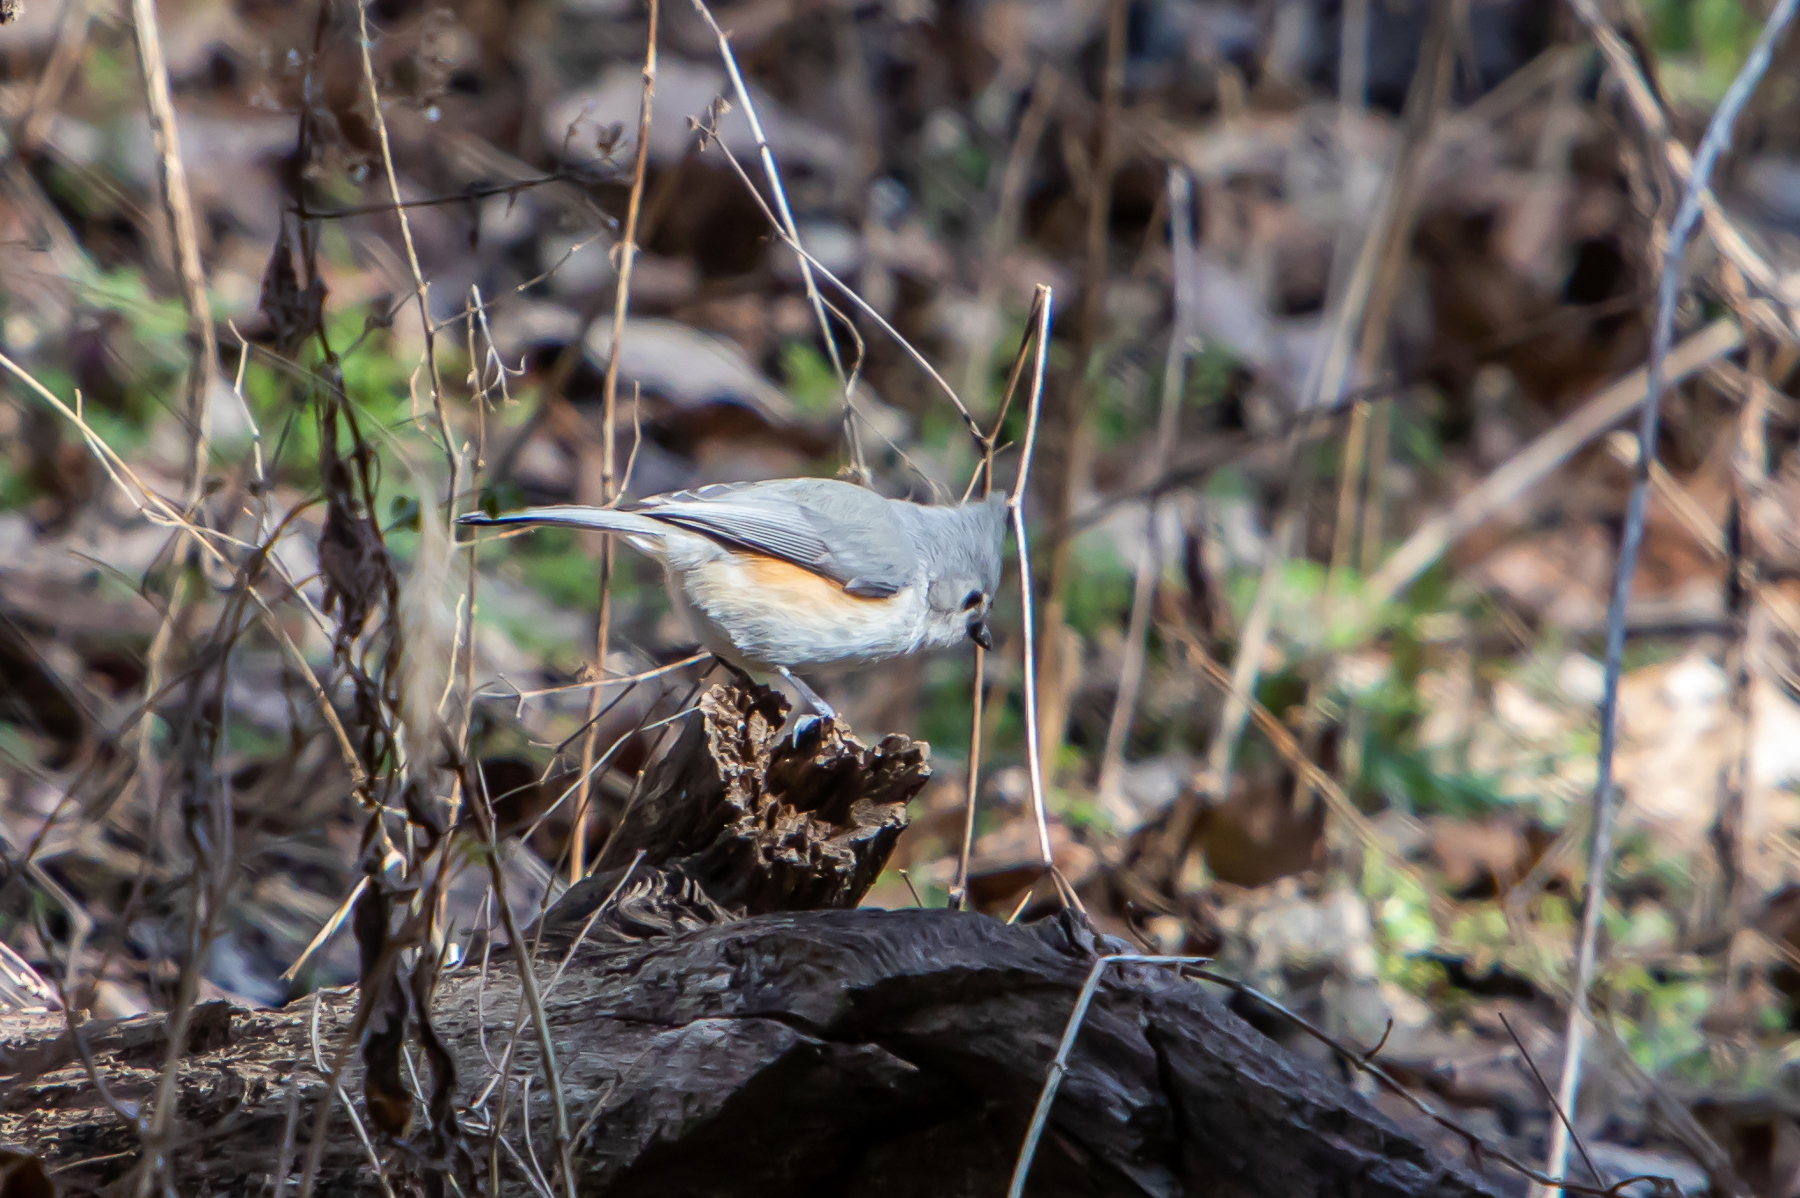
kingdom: Animalia
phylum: Chordata
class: Aves
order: Passeriformes
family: Paridae
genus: Baeolophus
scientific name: Baeolophus bicolor
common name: Tufted titmouse
